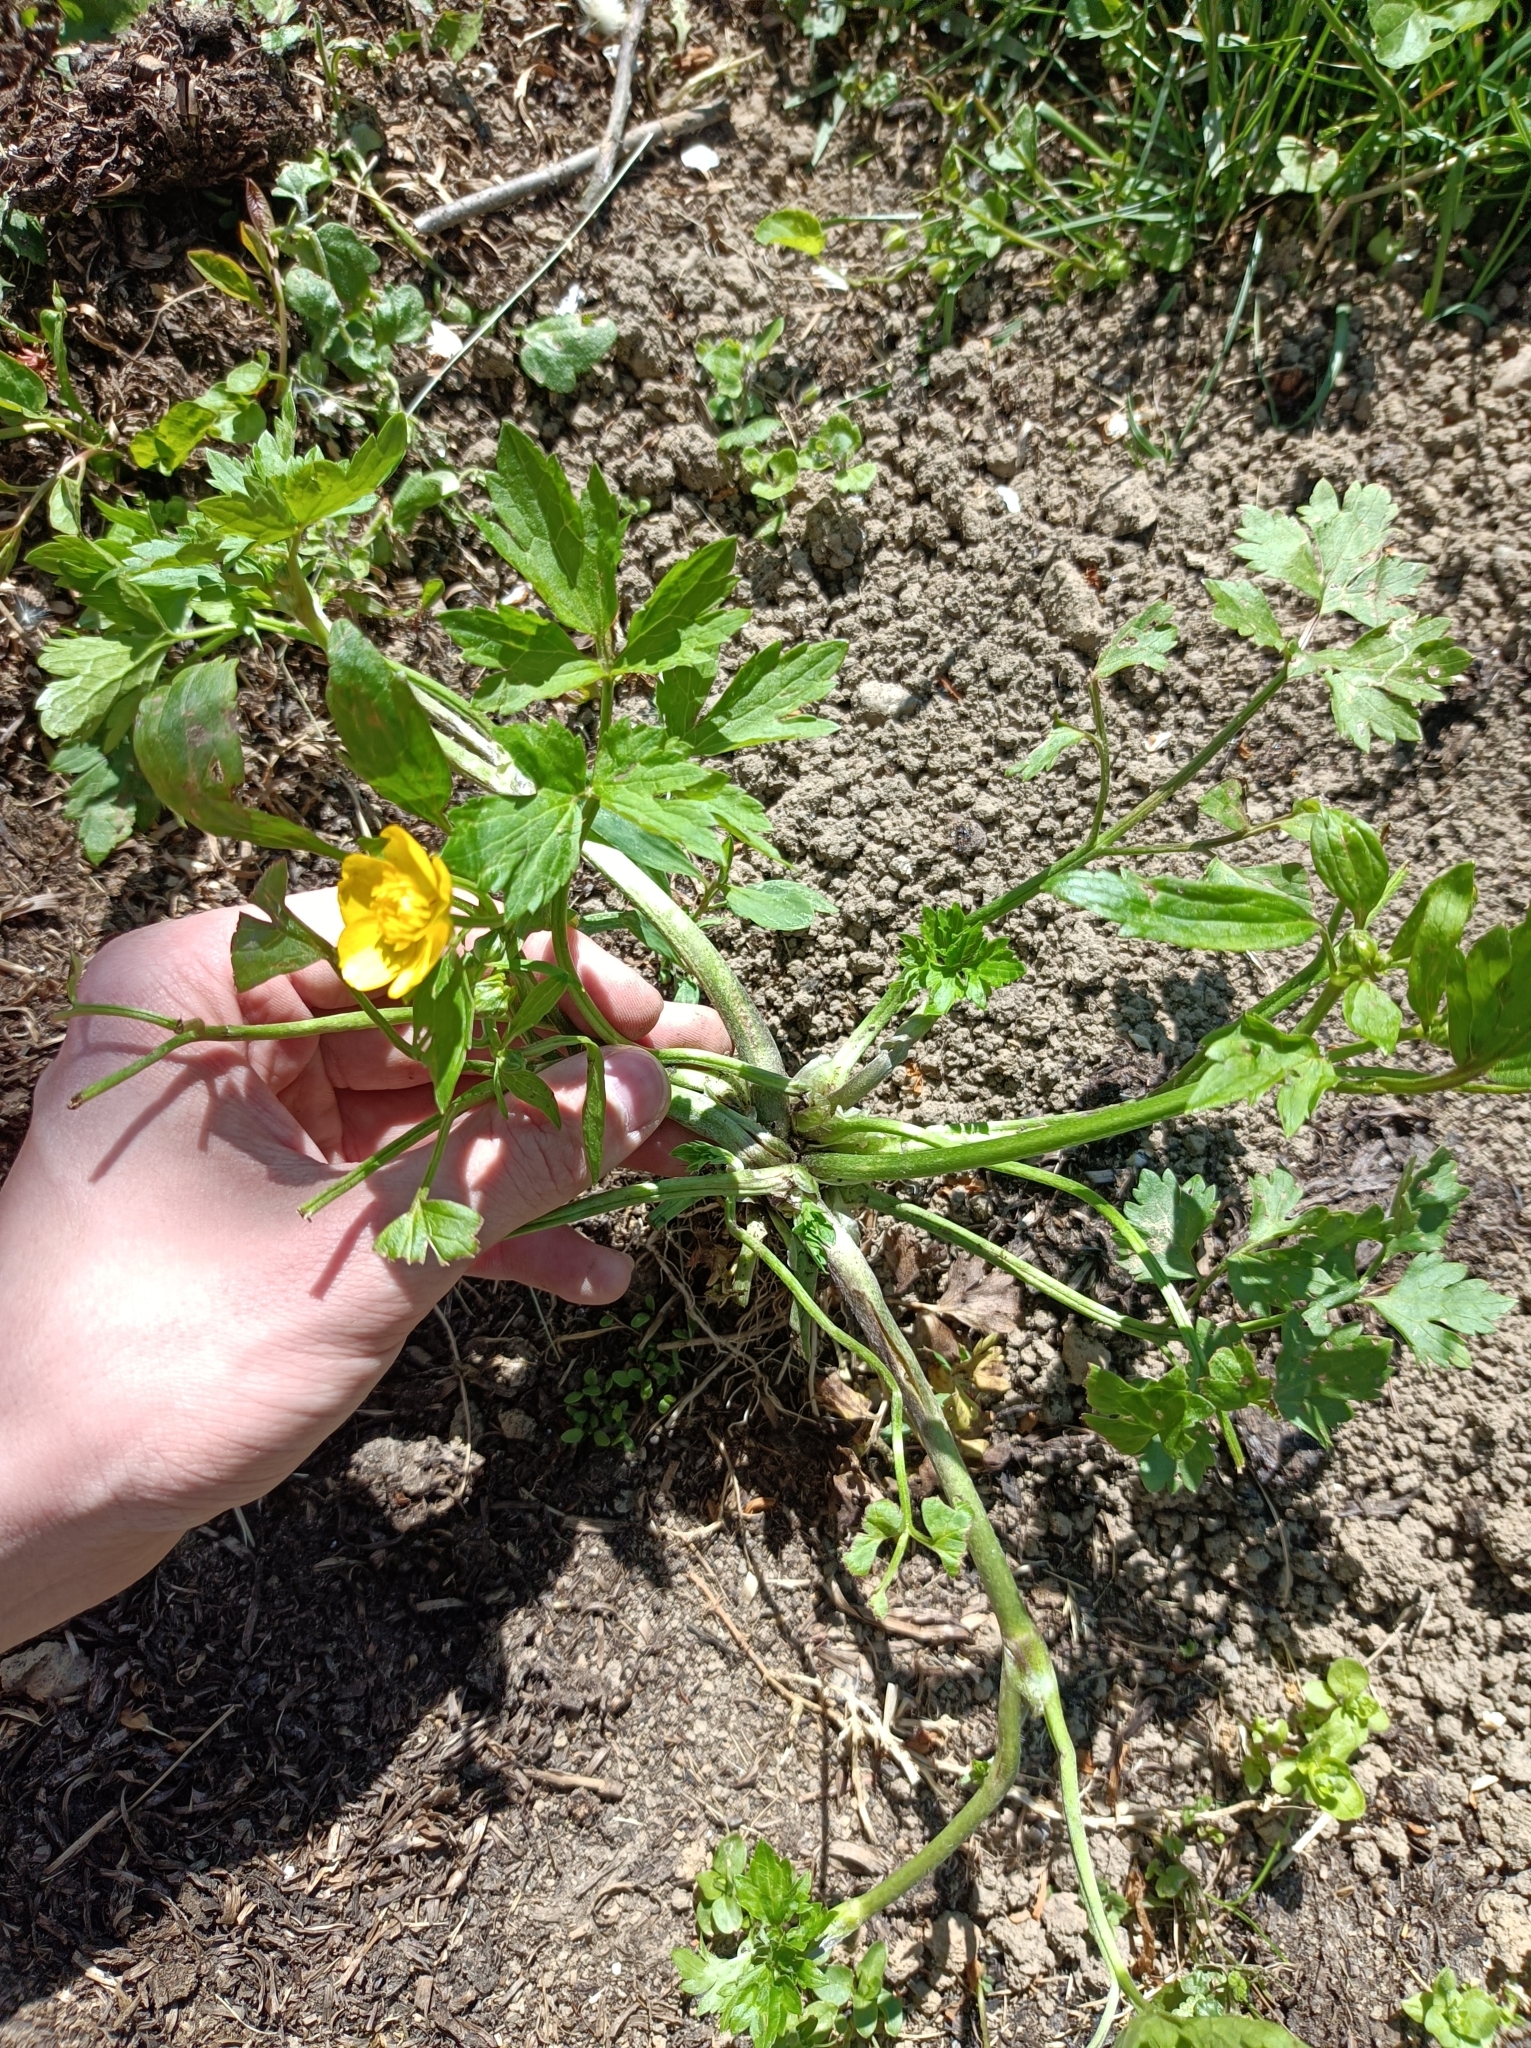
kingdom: Plantae
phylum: Tracheophyta
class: Magnoliopsida
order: Ranunculales
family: Ranunculaceae
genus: Ranunculus
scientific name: Ranunculus repens
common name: Creeping buttercup
